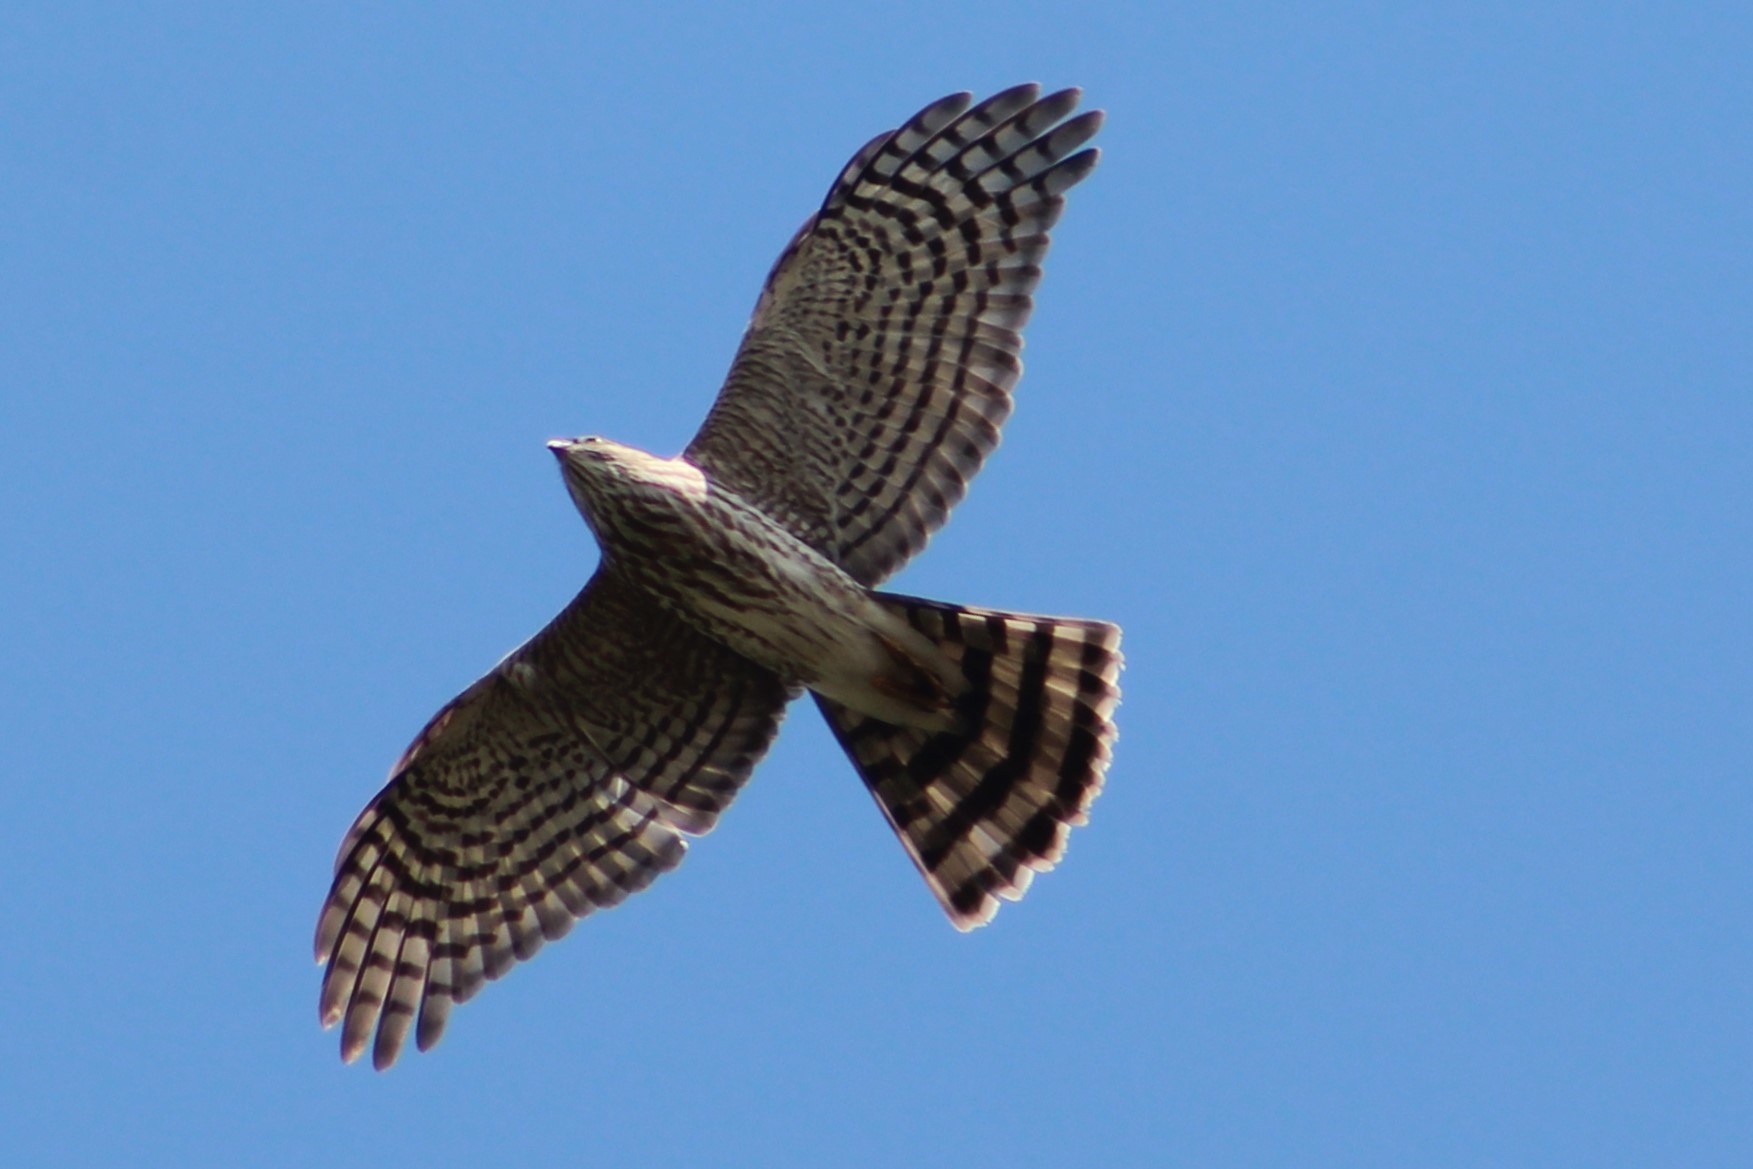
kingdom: Animalia
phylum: Chordata
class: Aves
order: Accipitriformes
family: Accipitridae
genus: Accipiter
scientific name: Accipiter striatus
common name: Sharp-shinned hawk
